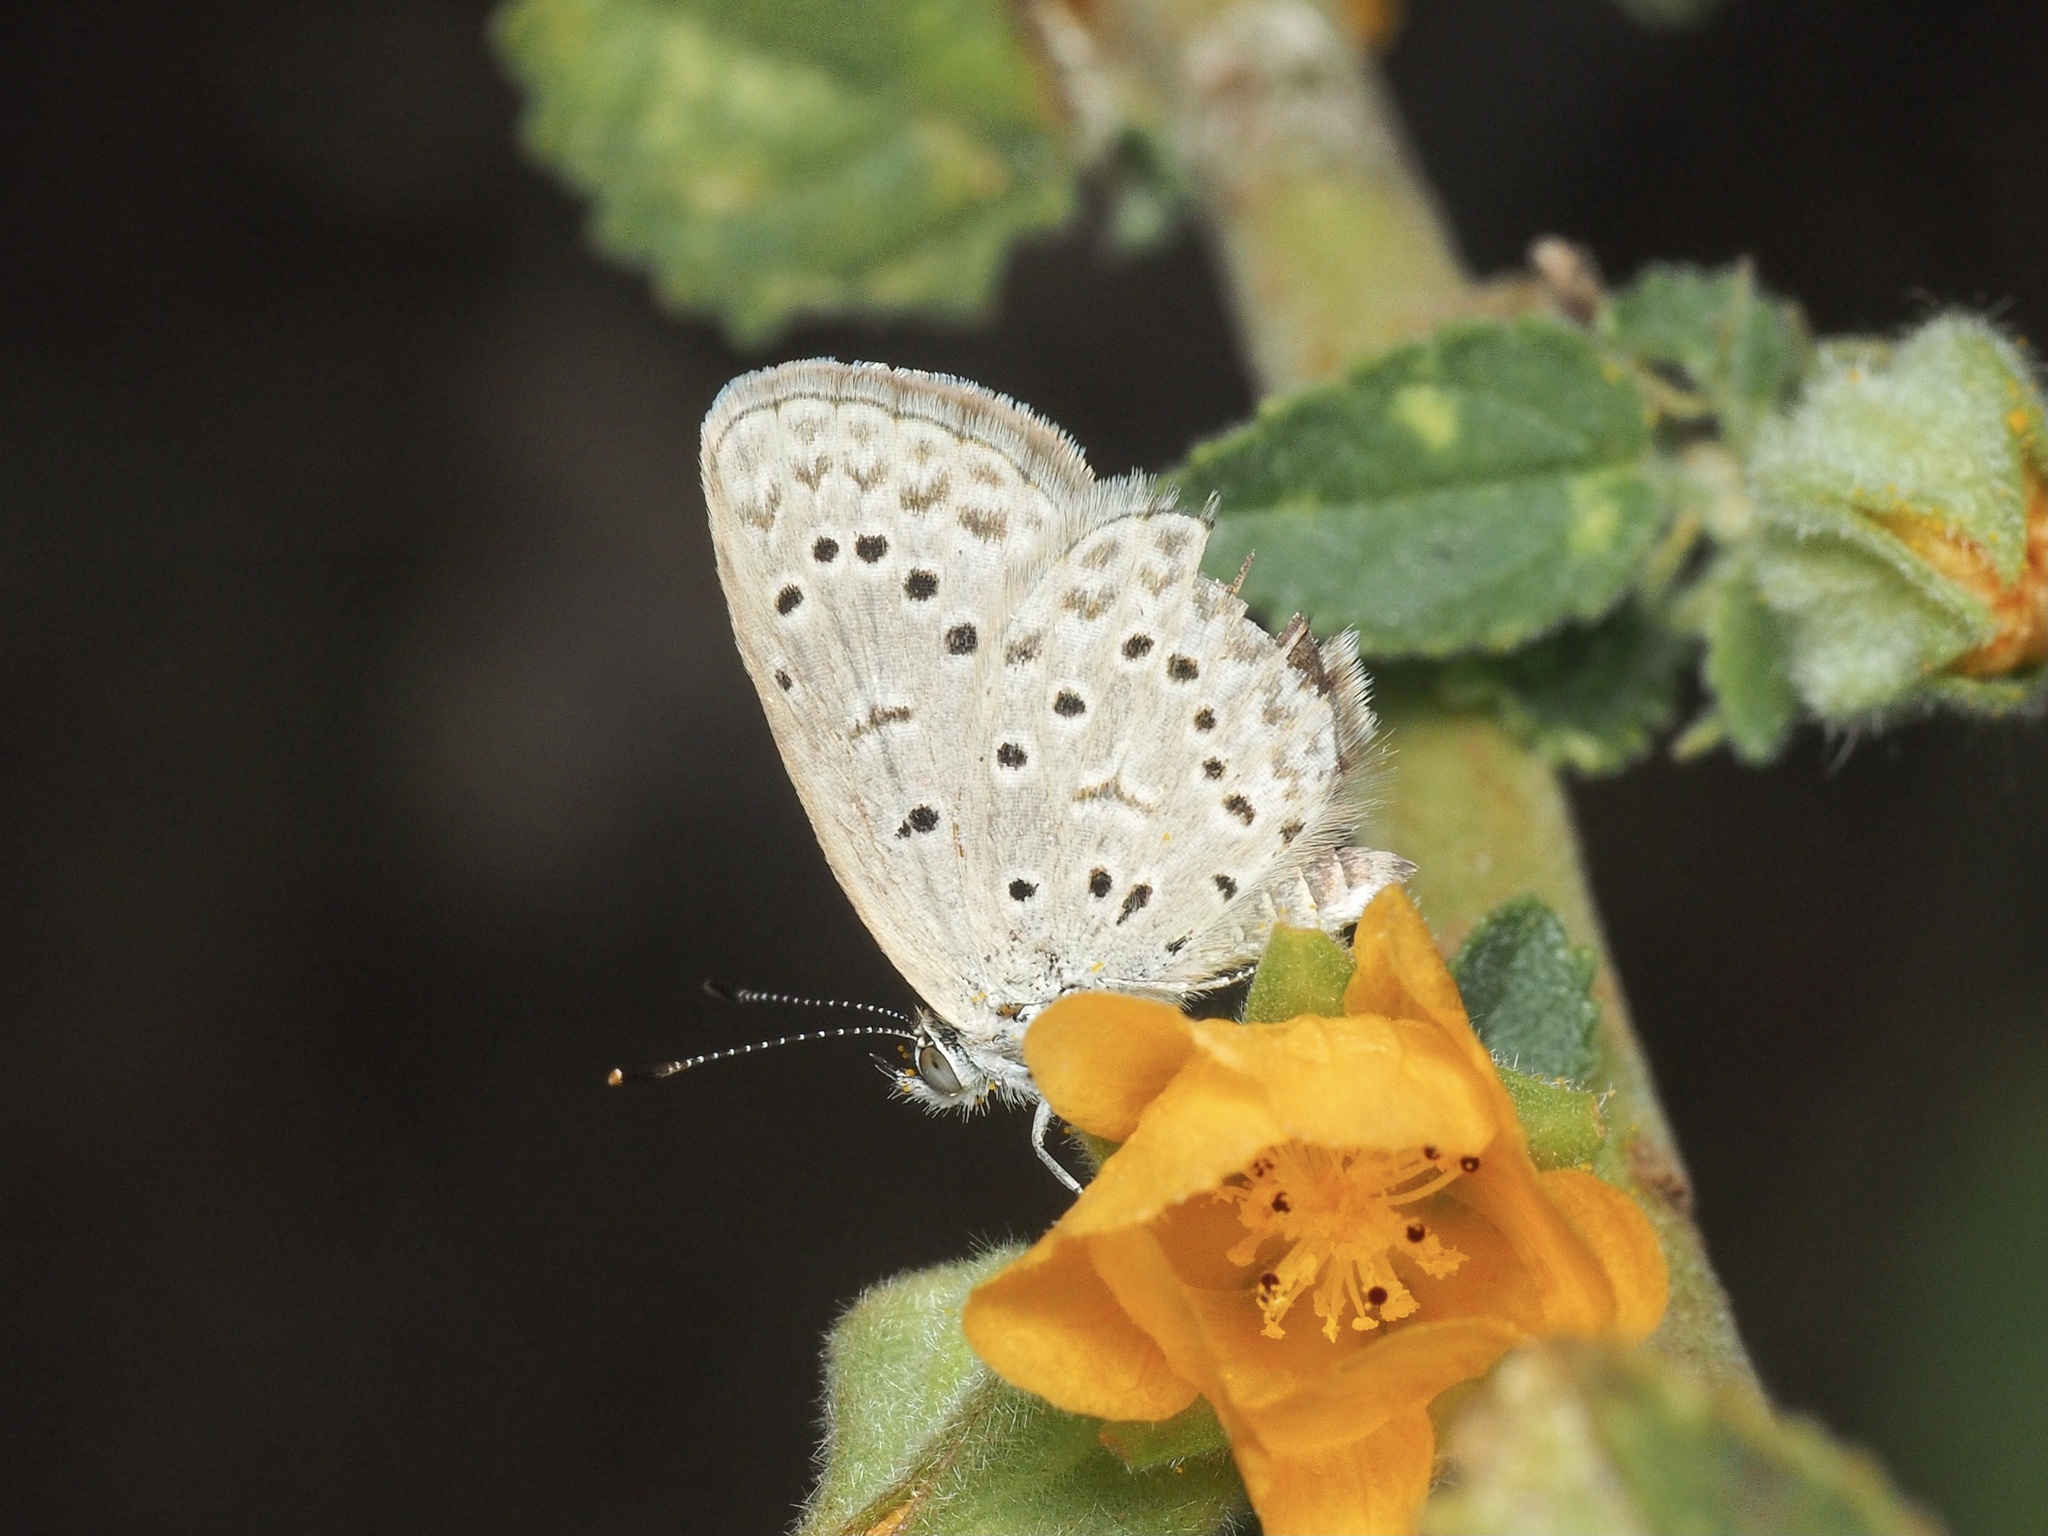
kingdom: Animalia
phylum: Arthropoda
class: Insecta
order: Lepidoptera
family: Lycaenidae
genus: Zizeeria
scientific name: Zizeeria knysna
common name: African grass blue
